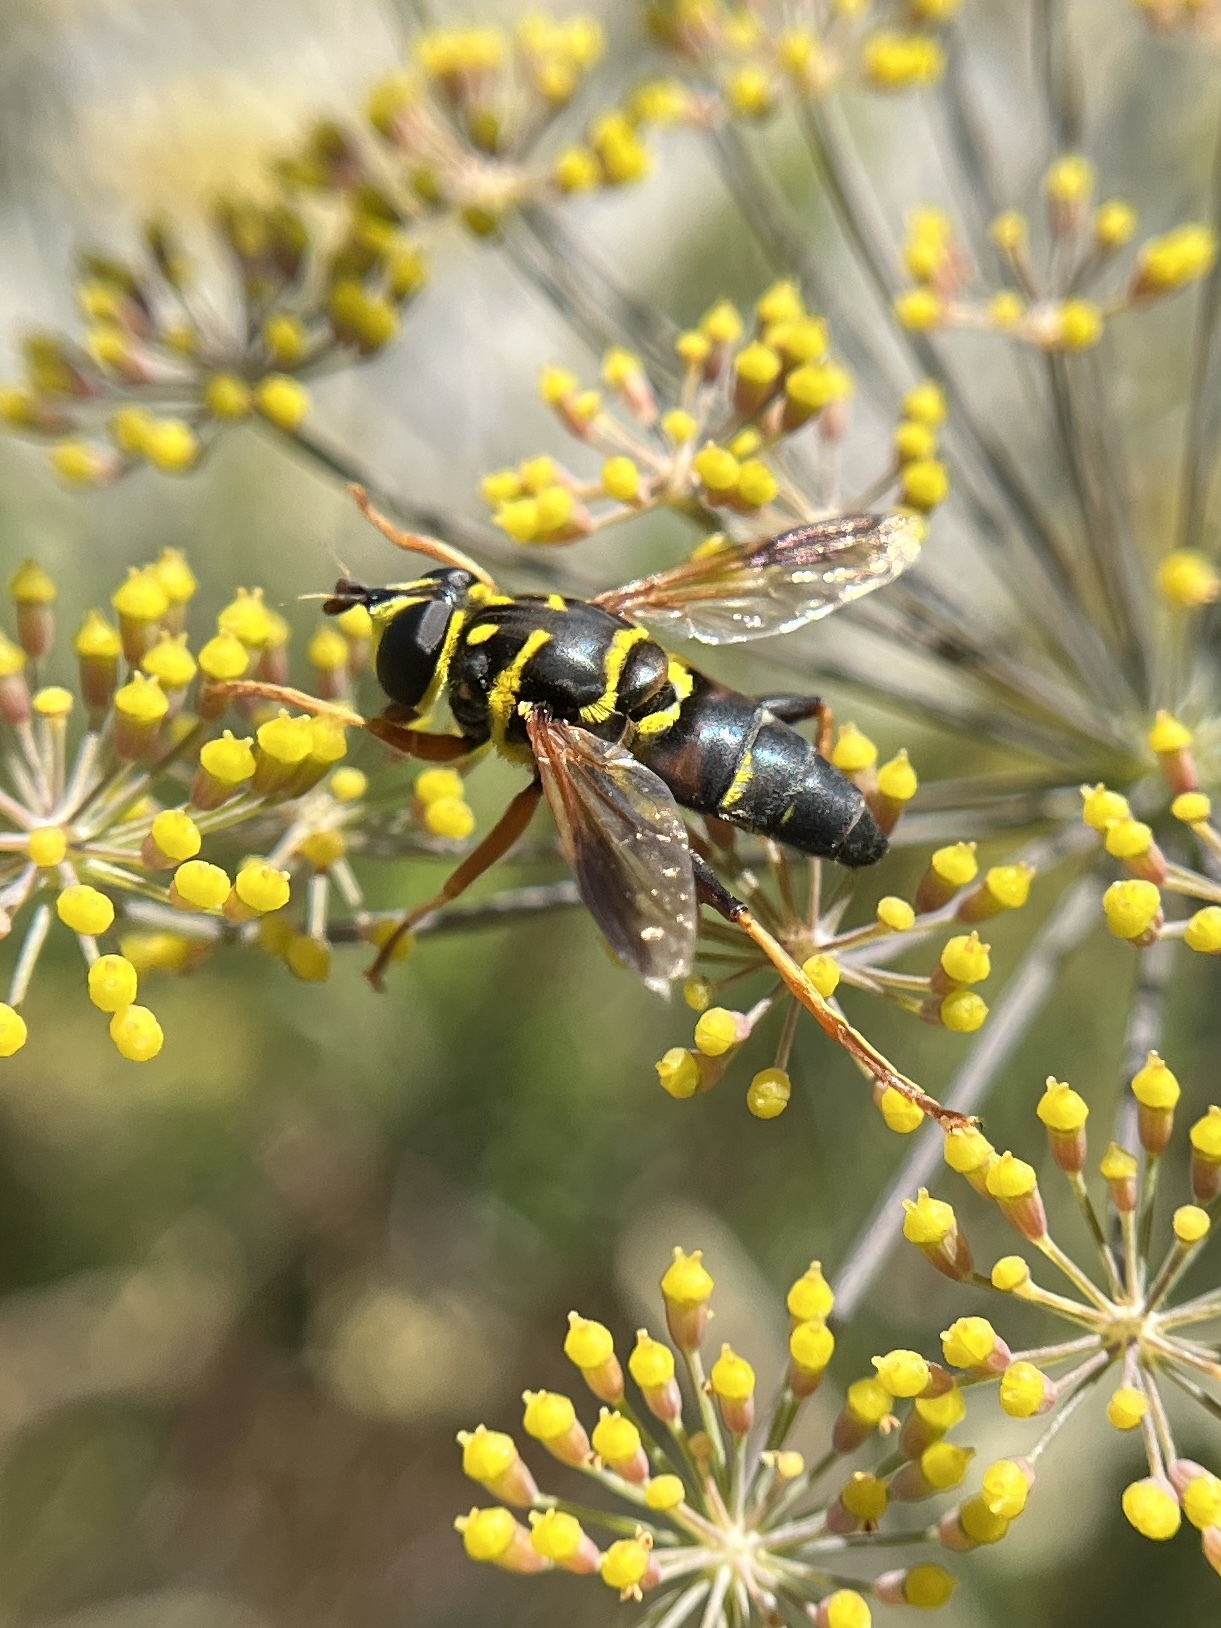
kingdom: Animalia
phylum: Arthropoda
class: Insecta
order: Diptera
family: Syrphidae
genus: Meromacrus
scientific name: Meromacrus acutus
